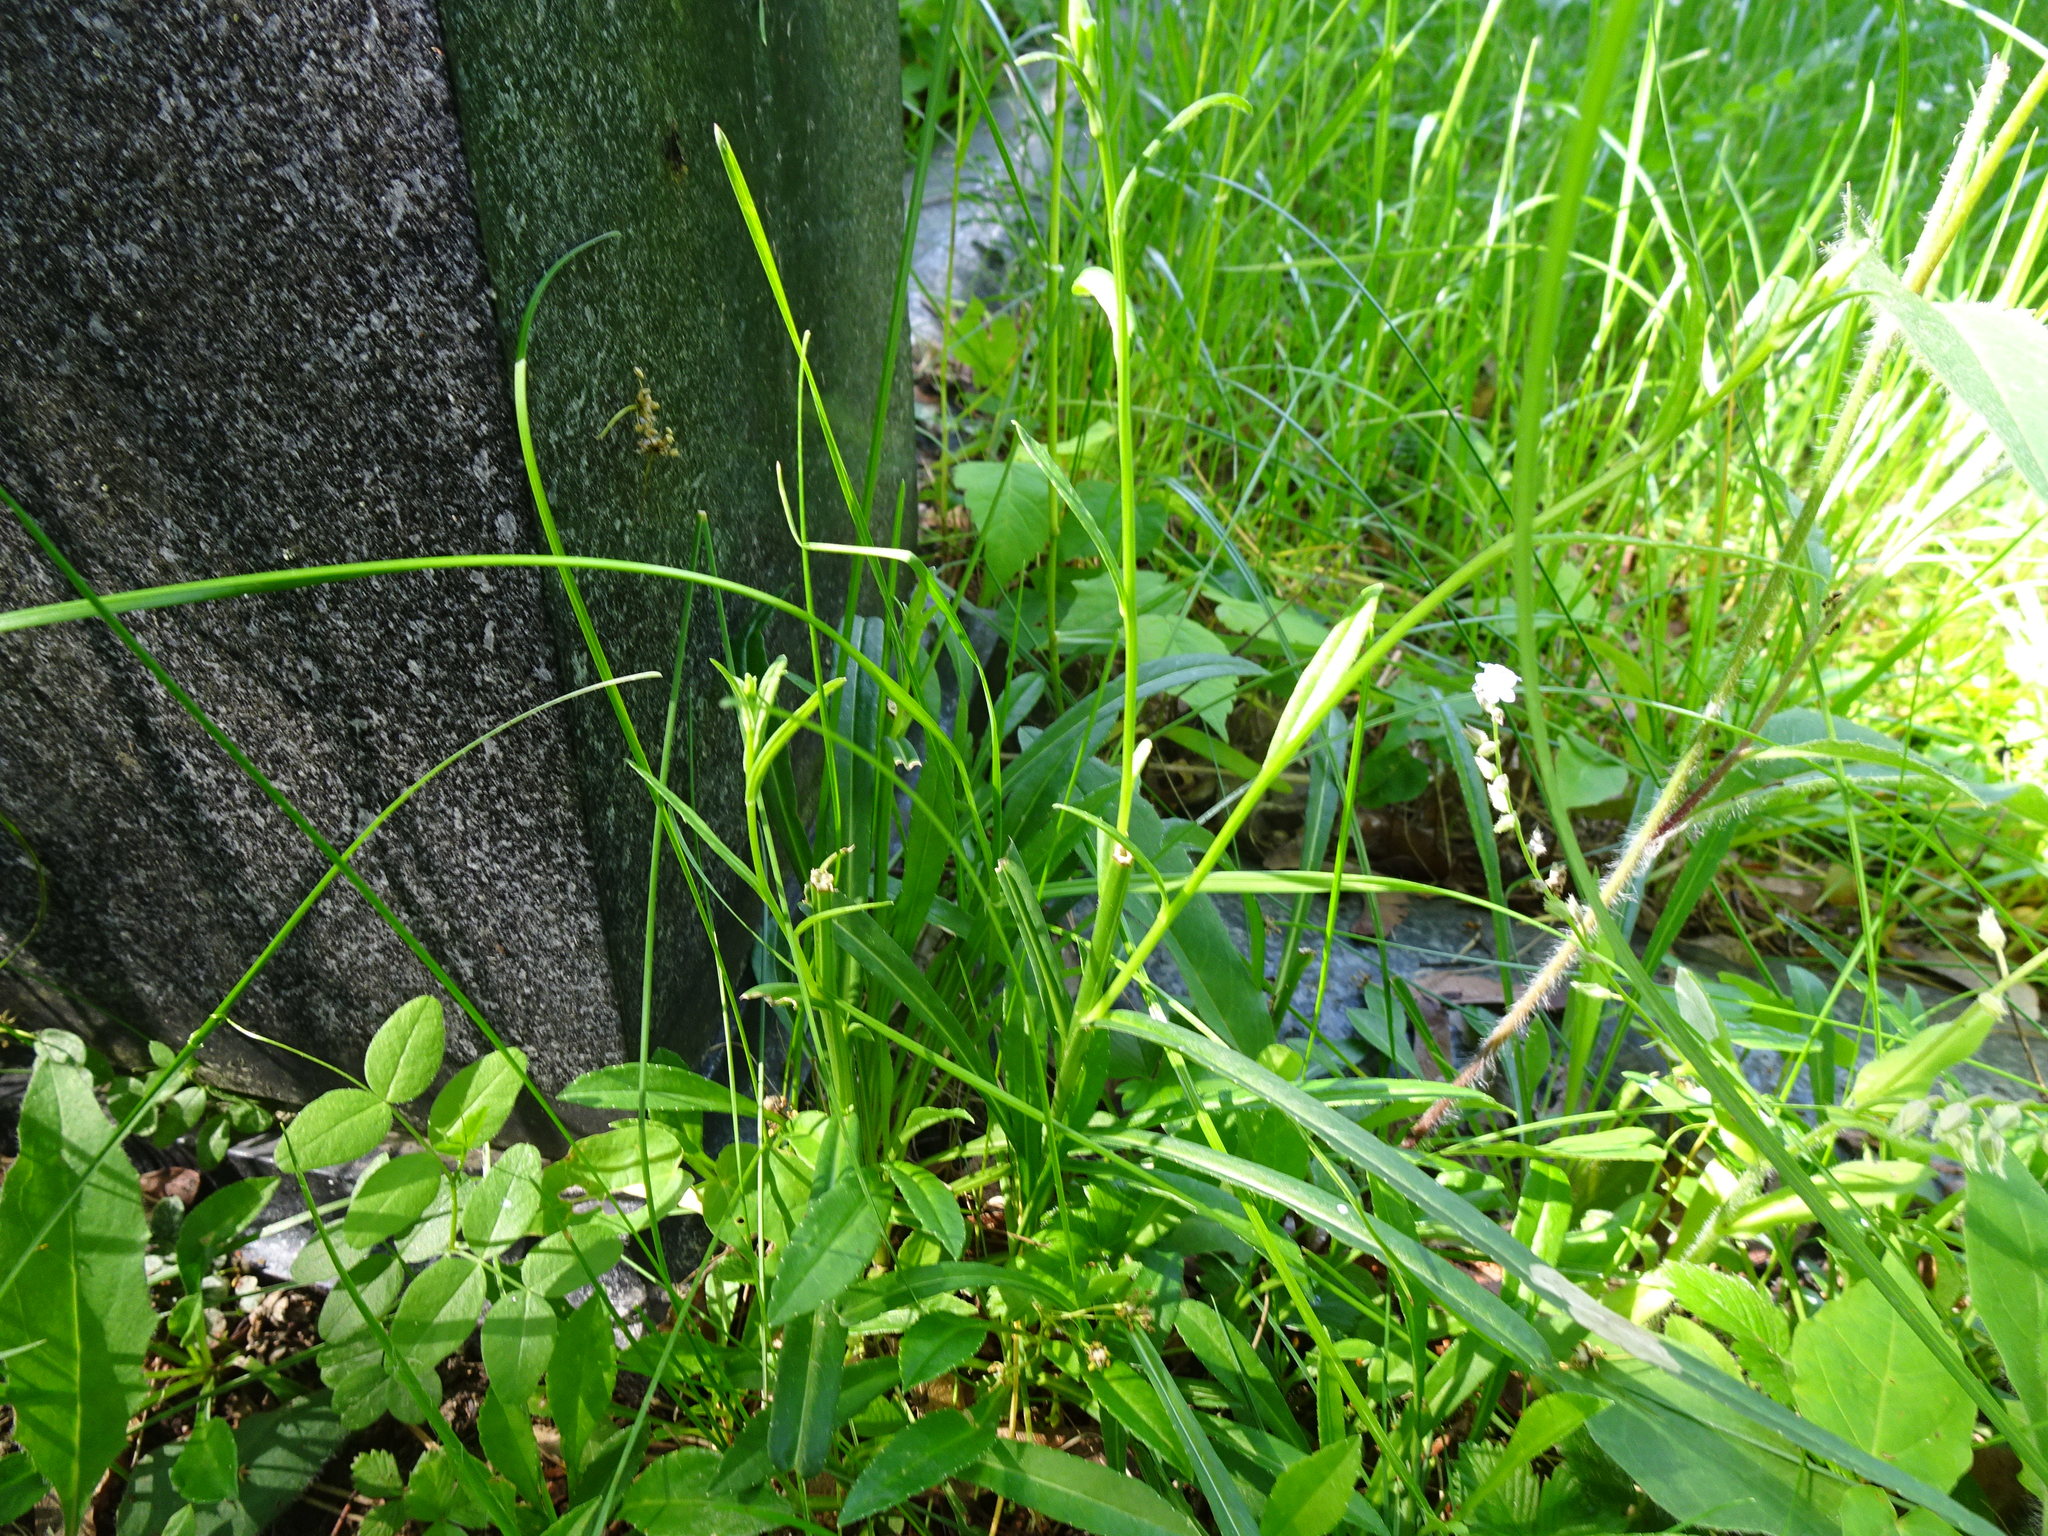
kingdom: Plantae
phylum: Tracheophyta
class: Magnoliopsida
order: Asterales
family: Campanulaceae
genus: Campanula
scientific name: Campanula persicifolia
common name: Peach-leaved bellflower
